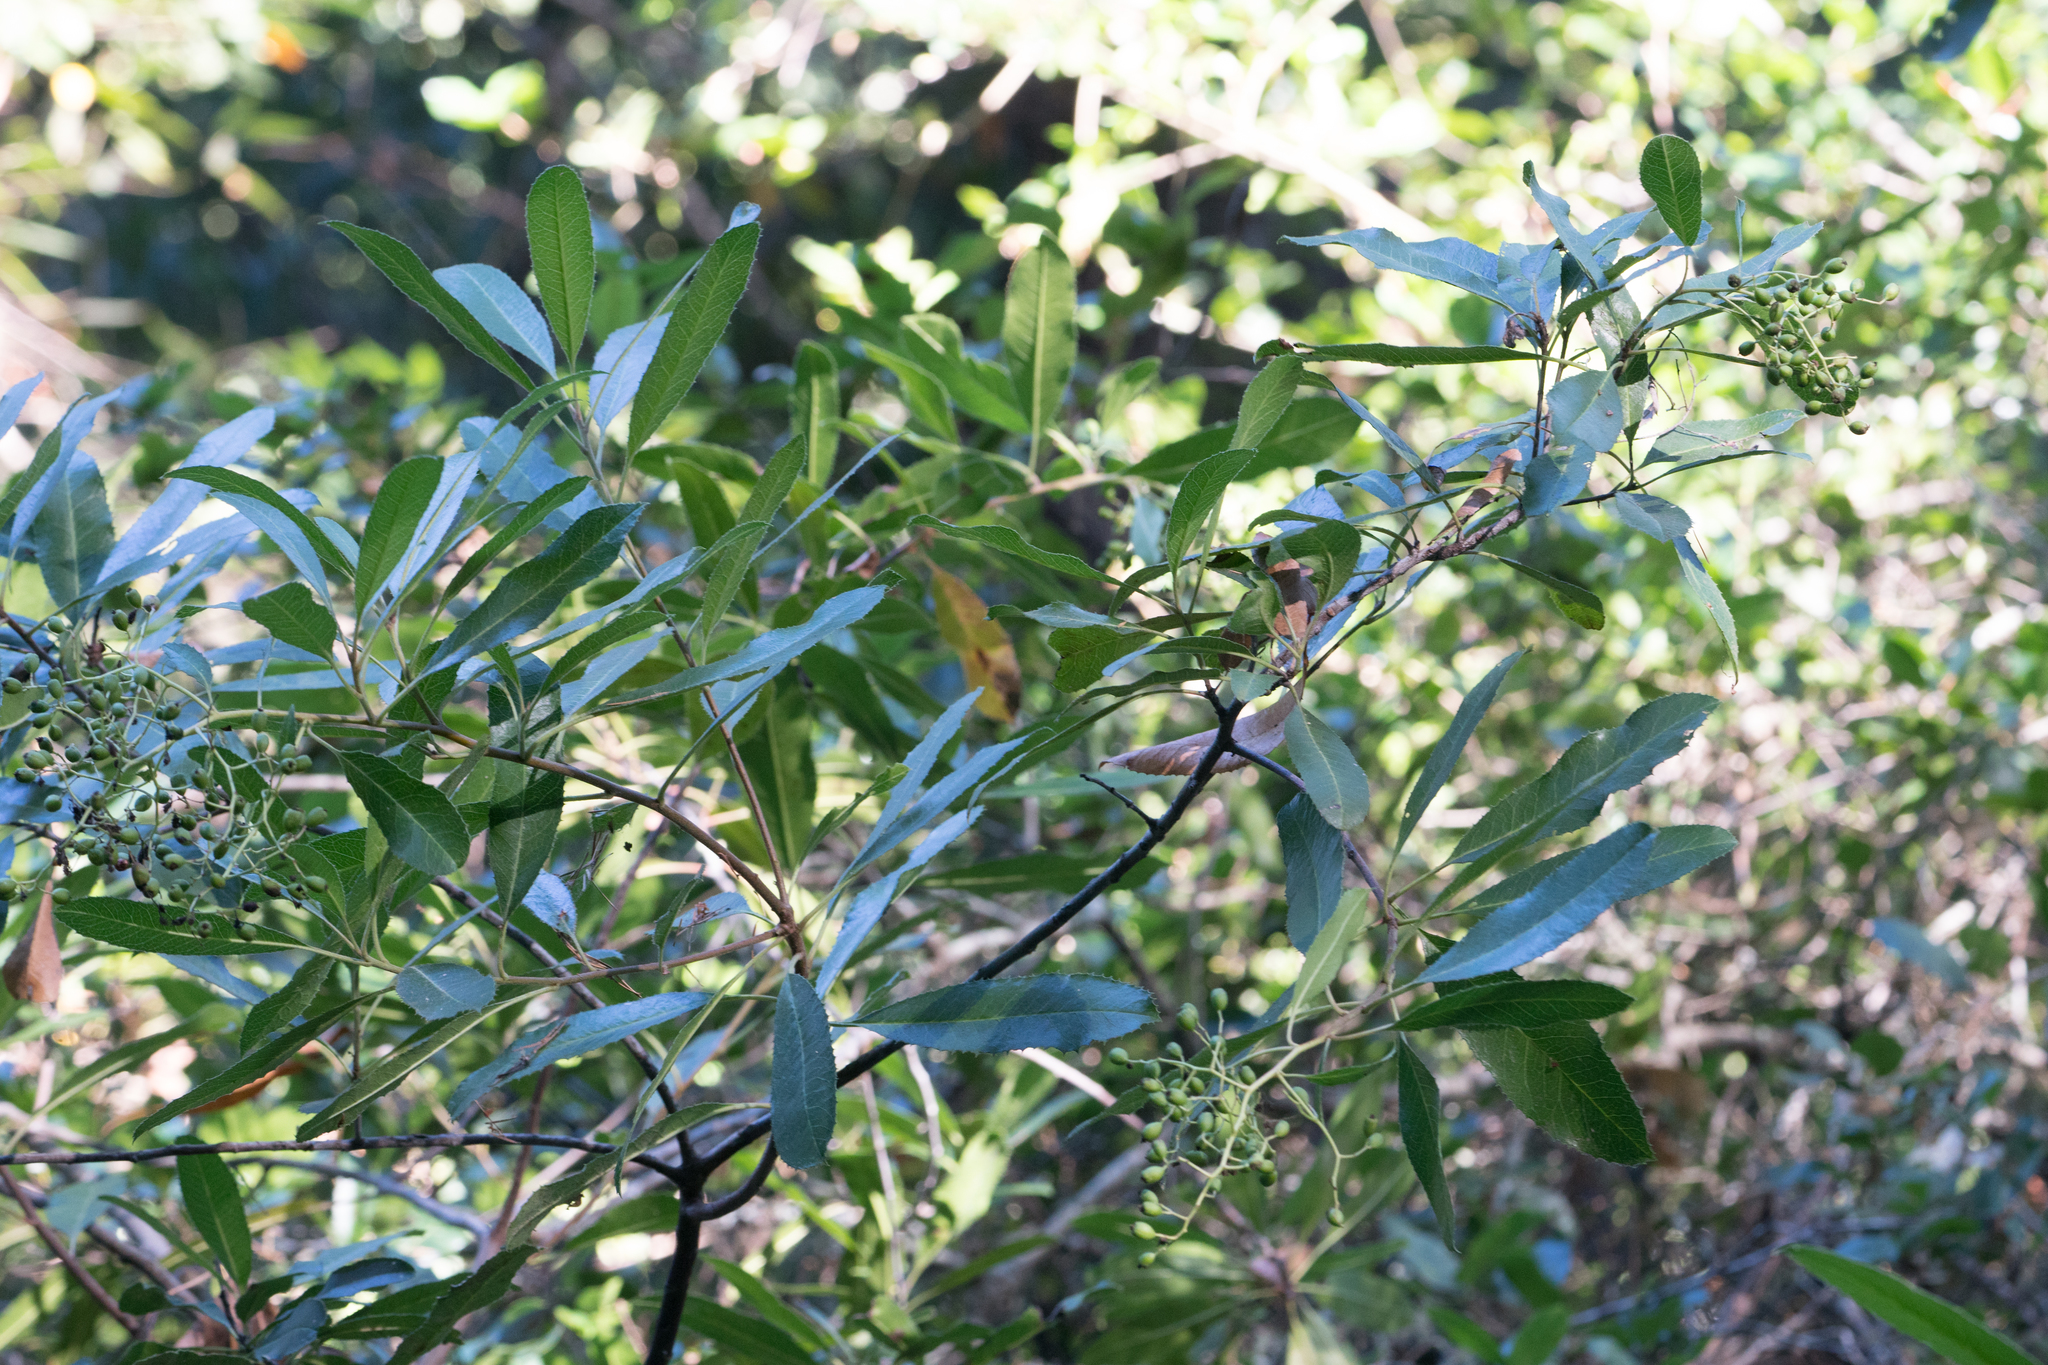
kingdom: Plantae
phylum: Tracheophyta
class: Magnoliopsida
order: Rosales
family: Rosaceae
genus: Heteromeles
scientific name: Heteromeles arbutifolia
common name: California-holly
